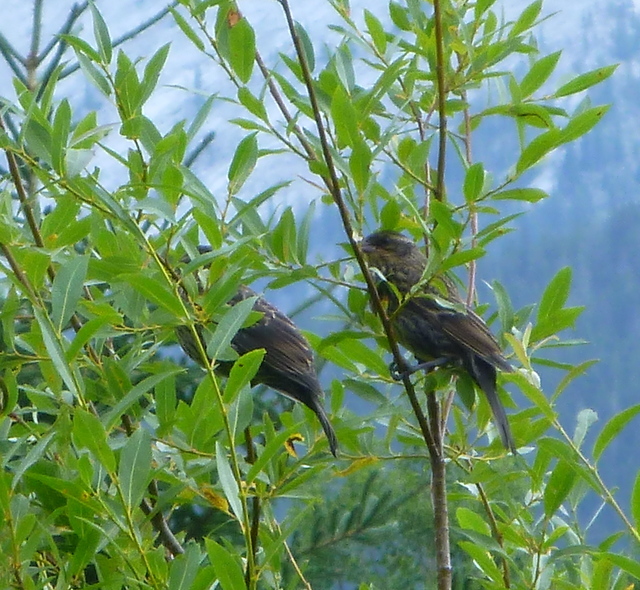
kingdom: Animalia
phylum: Chordata
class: Aves
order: Passeriformes
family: Icteridae
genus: Agelaius
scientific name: Agelaius phoeniceus
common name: Red-winged blackbird
